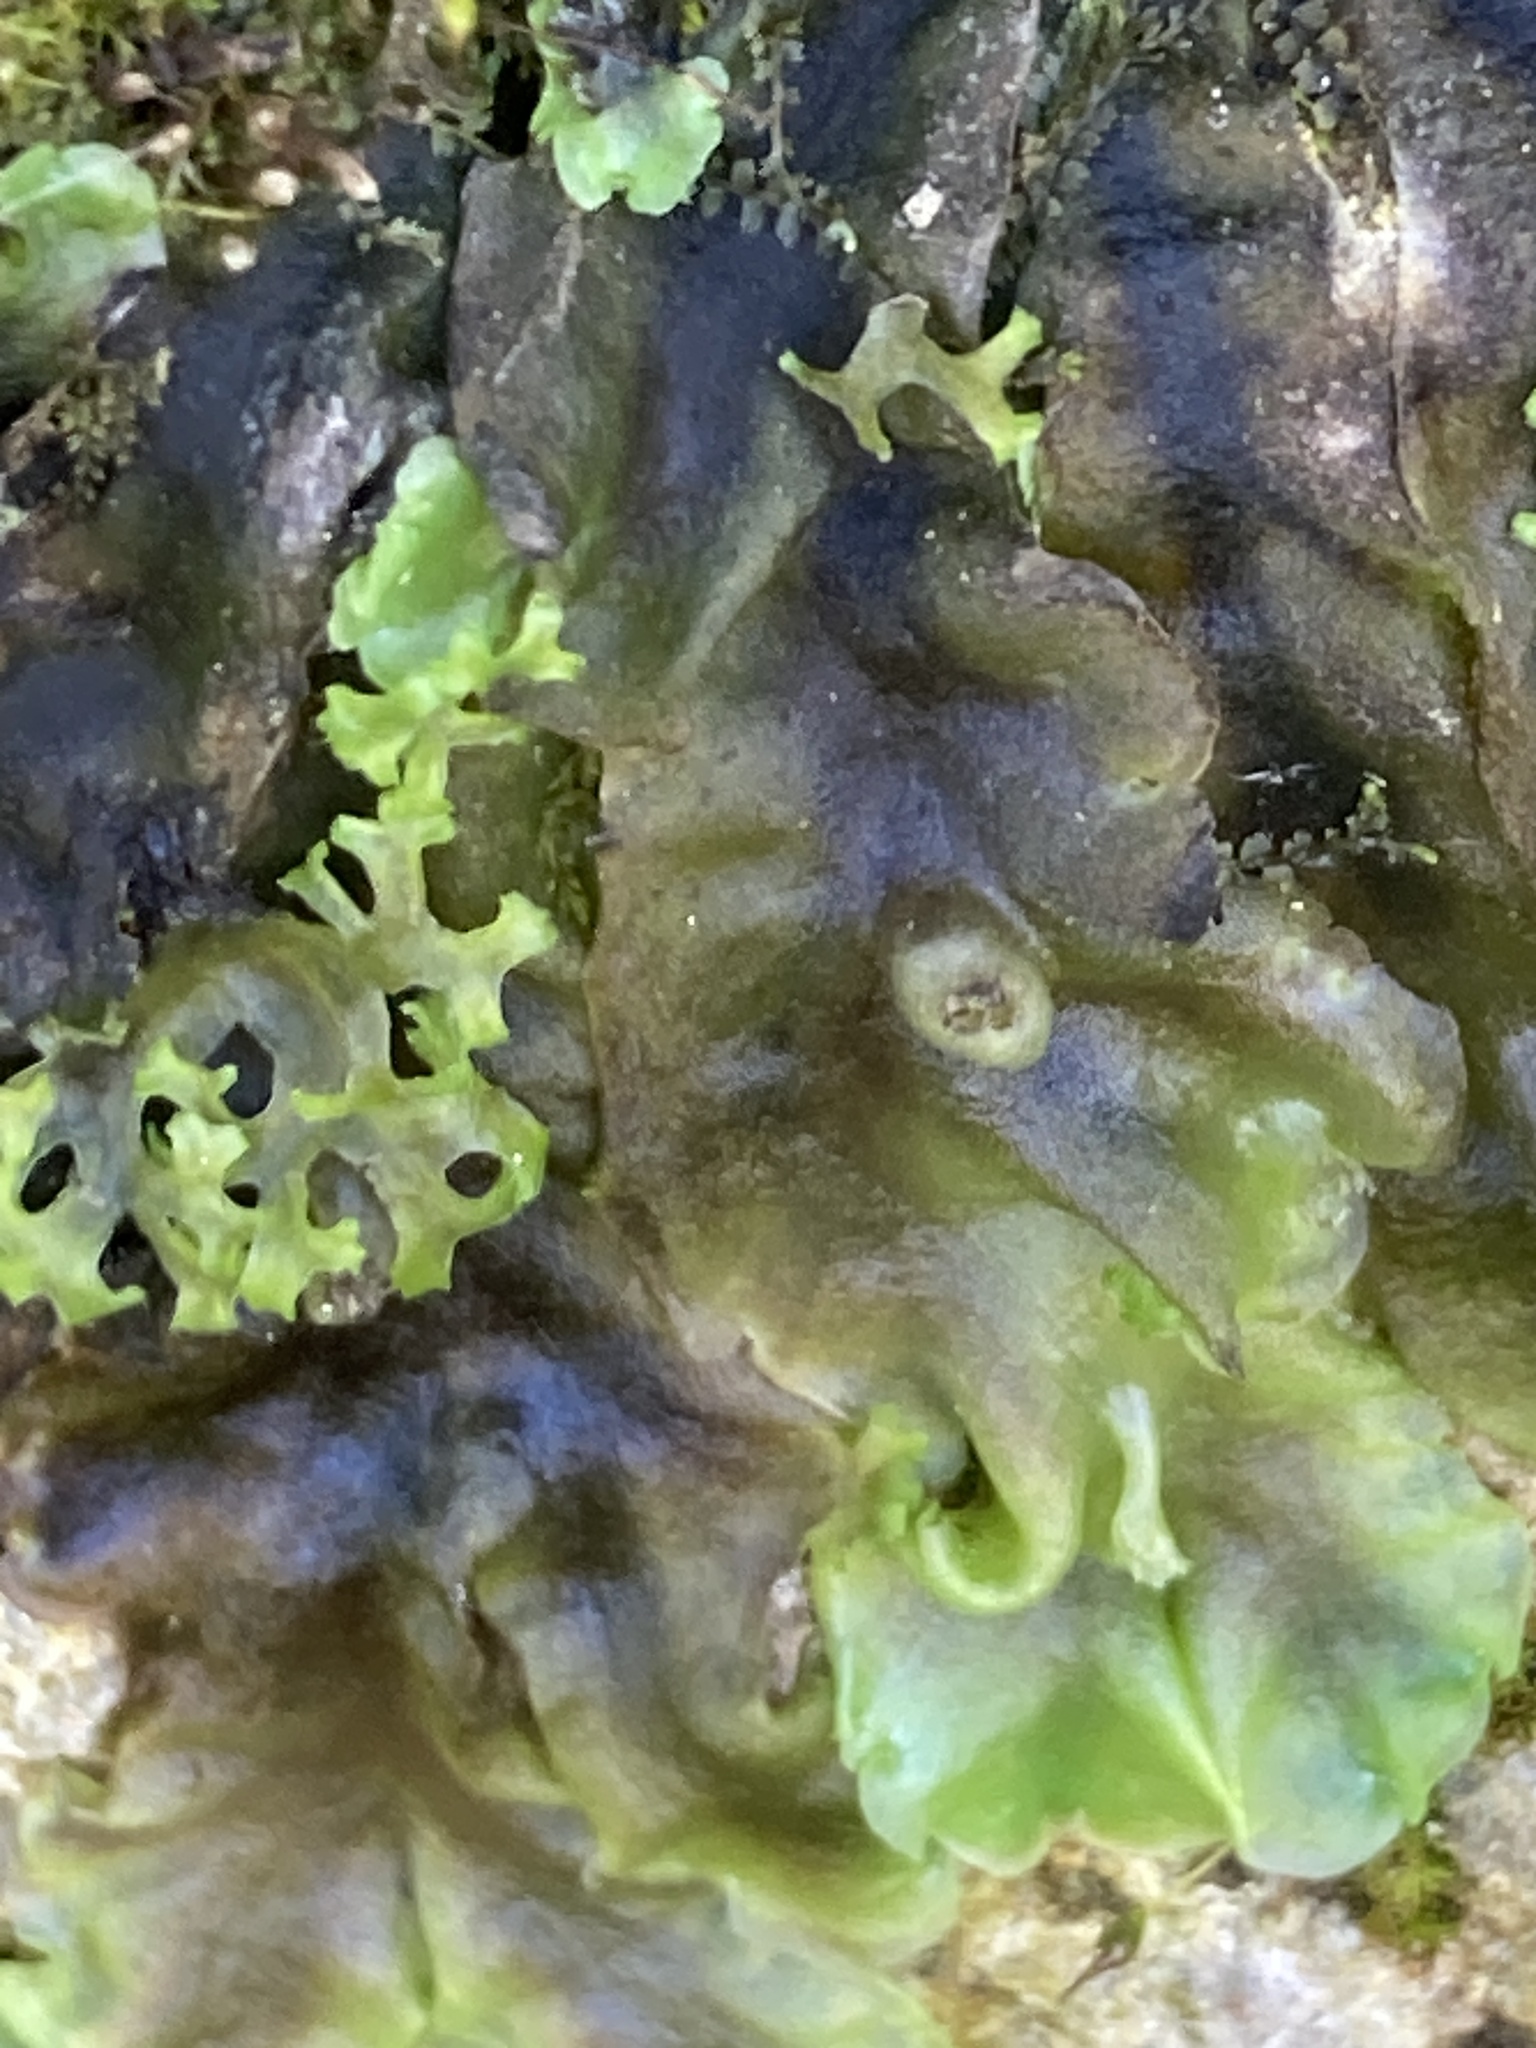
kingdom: Plantae
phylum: Marchantiophyta
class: Jungermanniopsida
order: Pelliales
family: Pelliaceae
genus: Apopellia
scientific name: Apopellia endiviifolia
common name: Endive pellia
